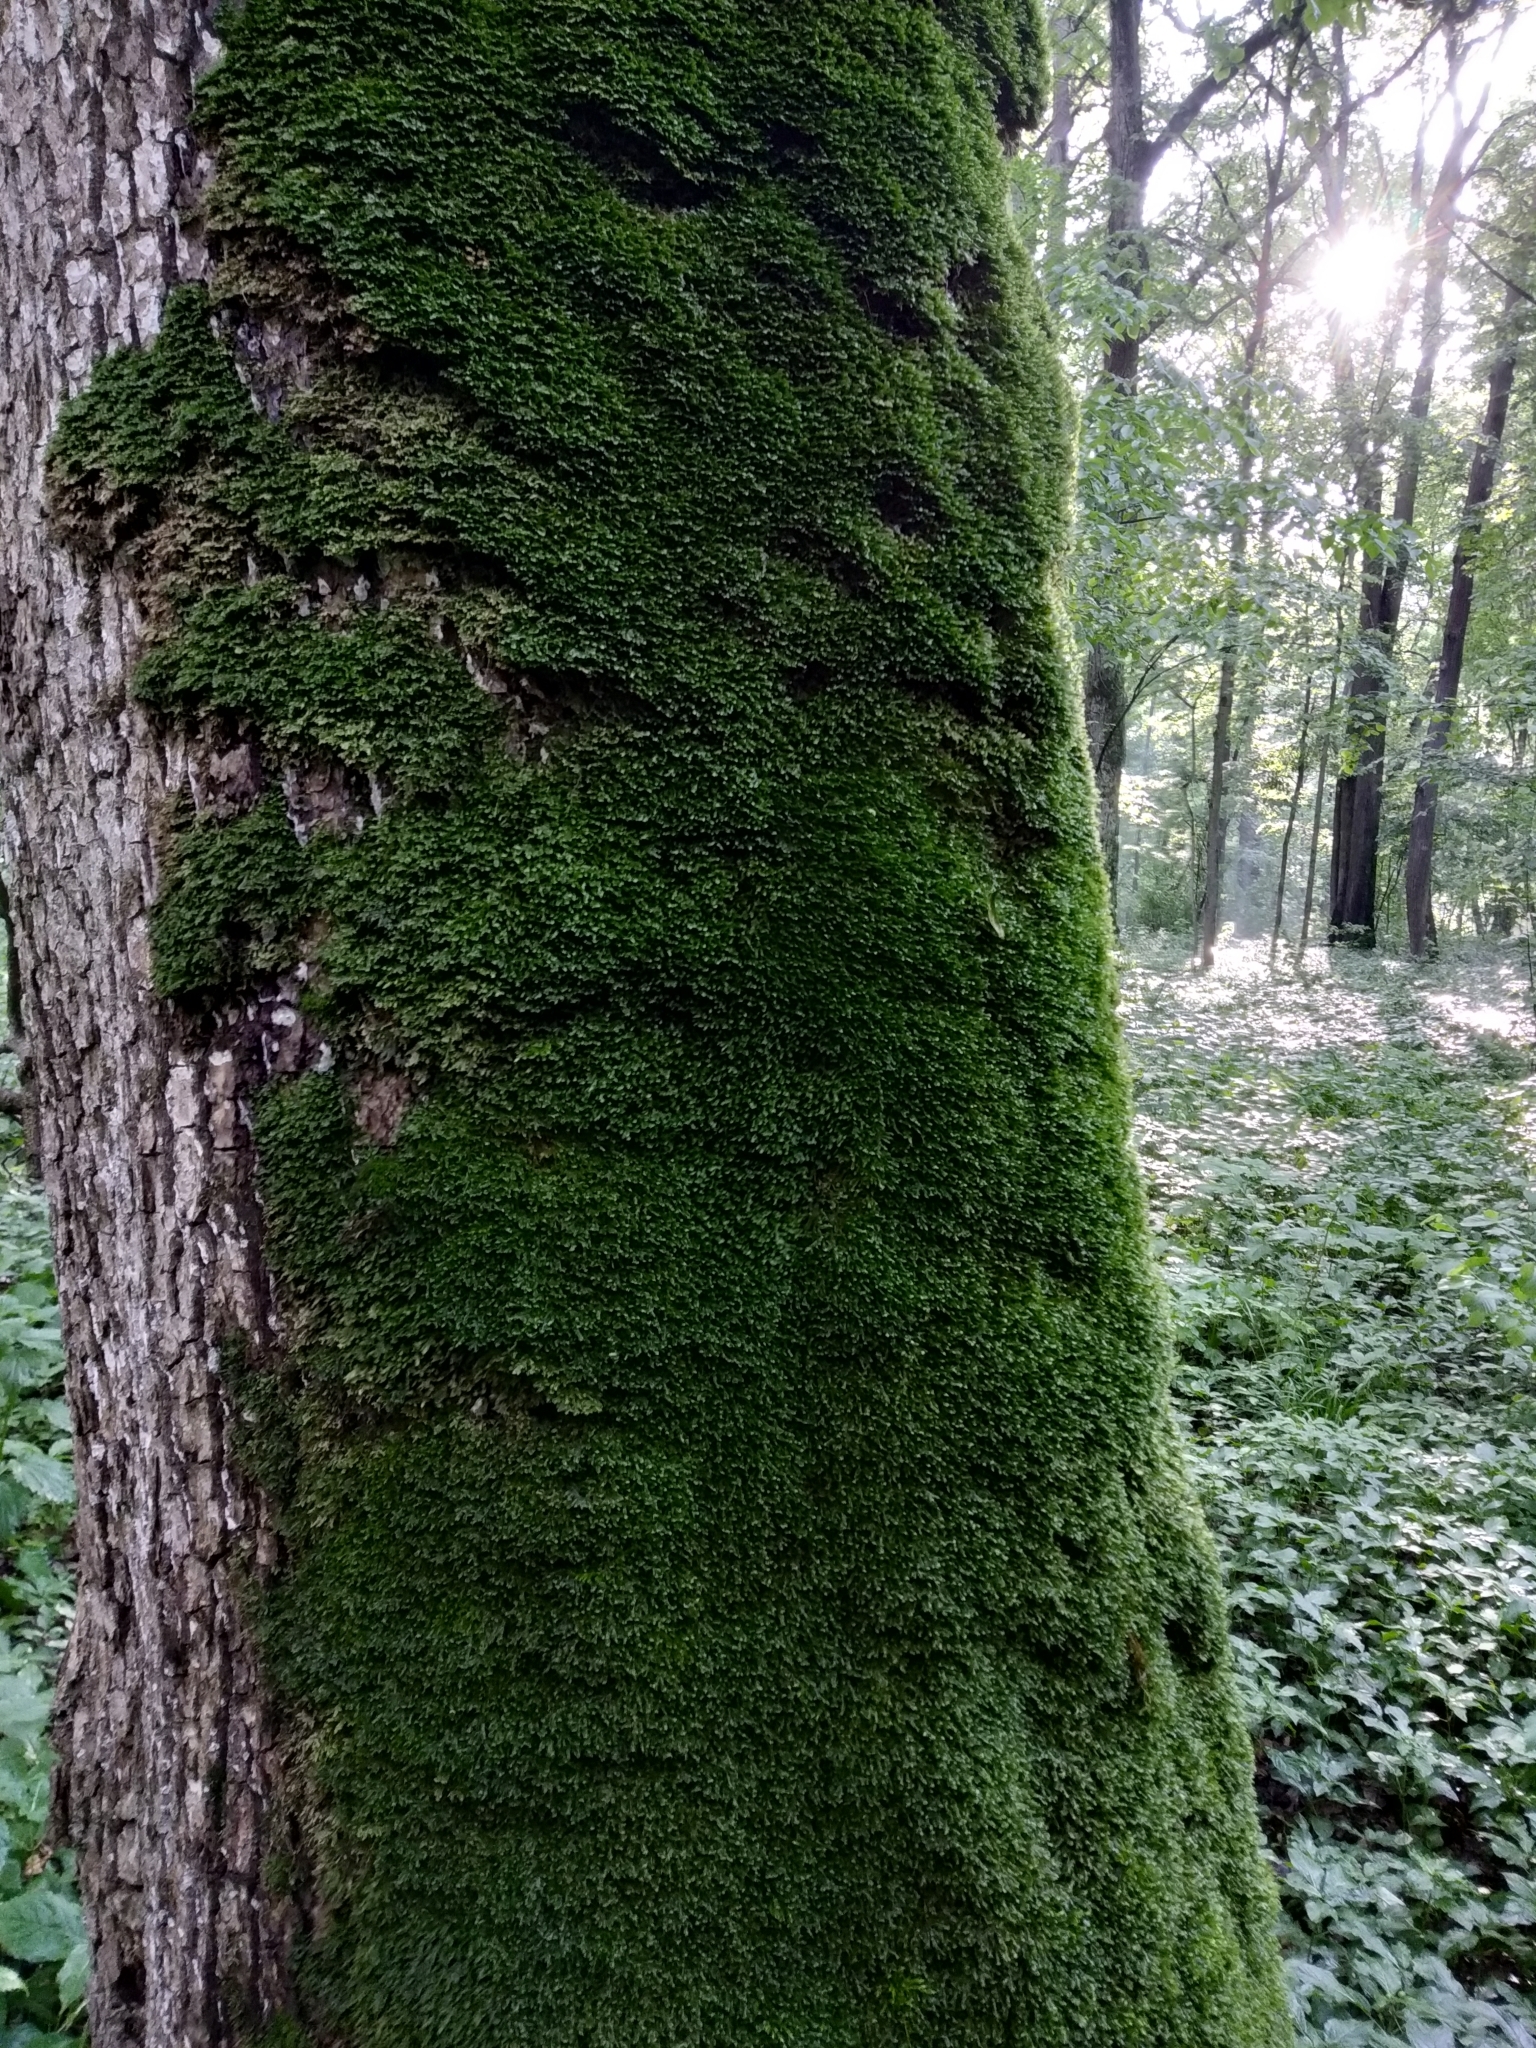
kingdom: Plantae
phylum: Bryophyta
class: Bryopsida
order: Hypnales
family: Neckeraceae
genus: Homalia
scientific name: Homalia trichomanoides
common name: Lime homalia moss
